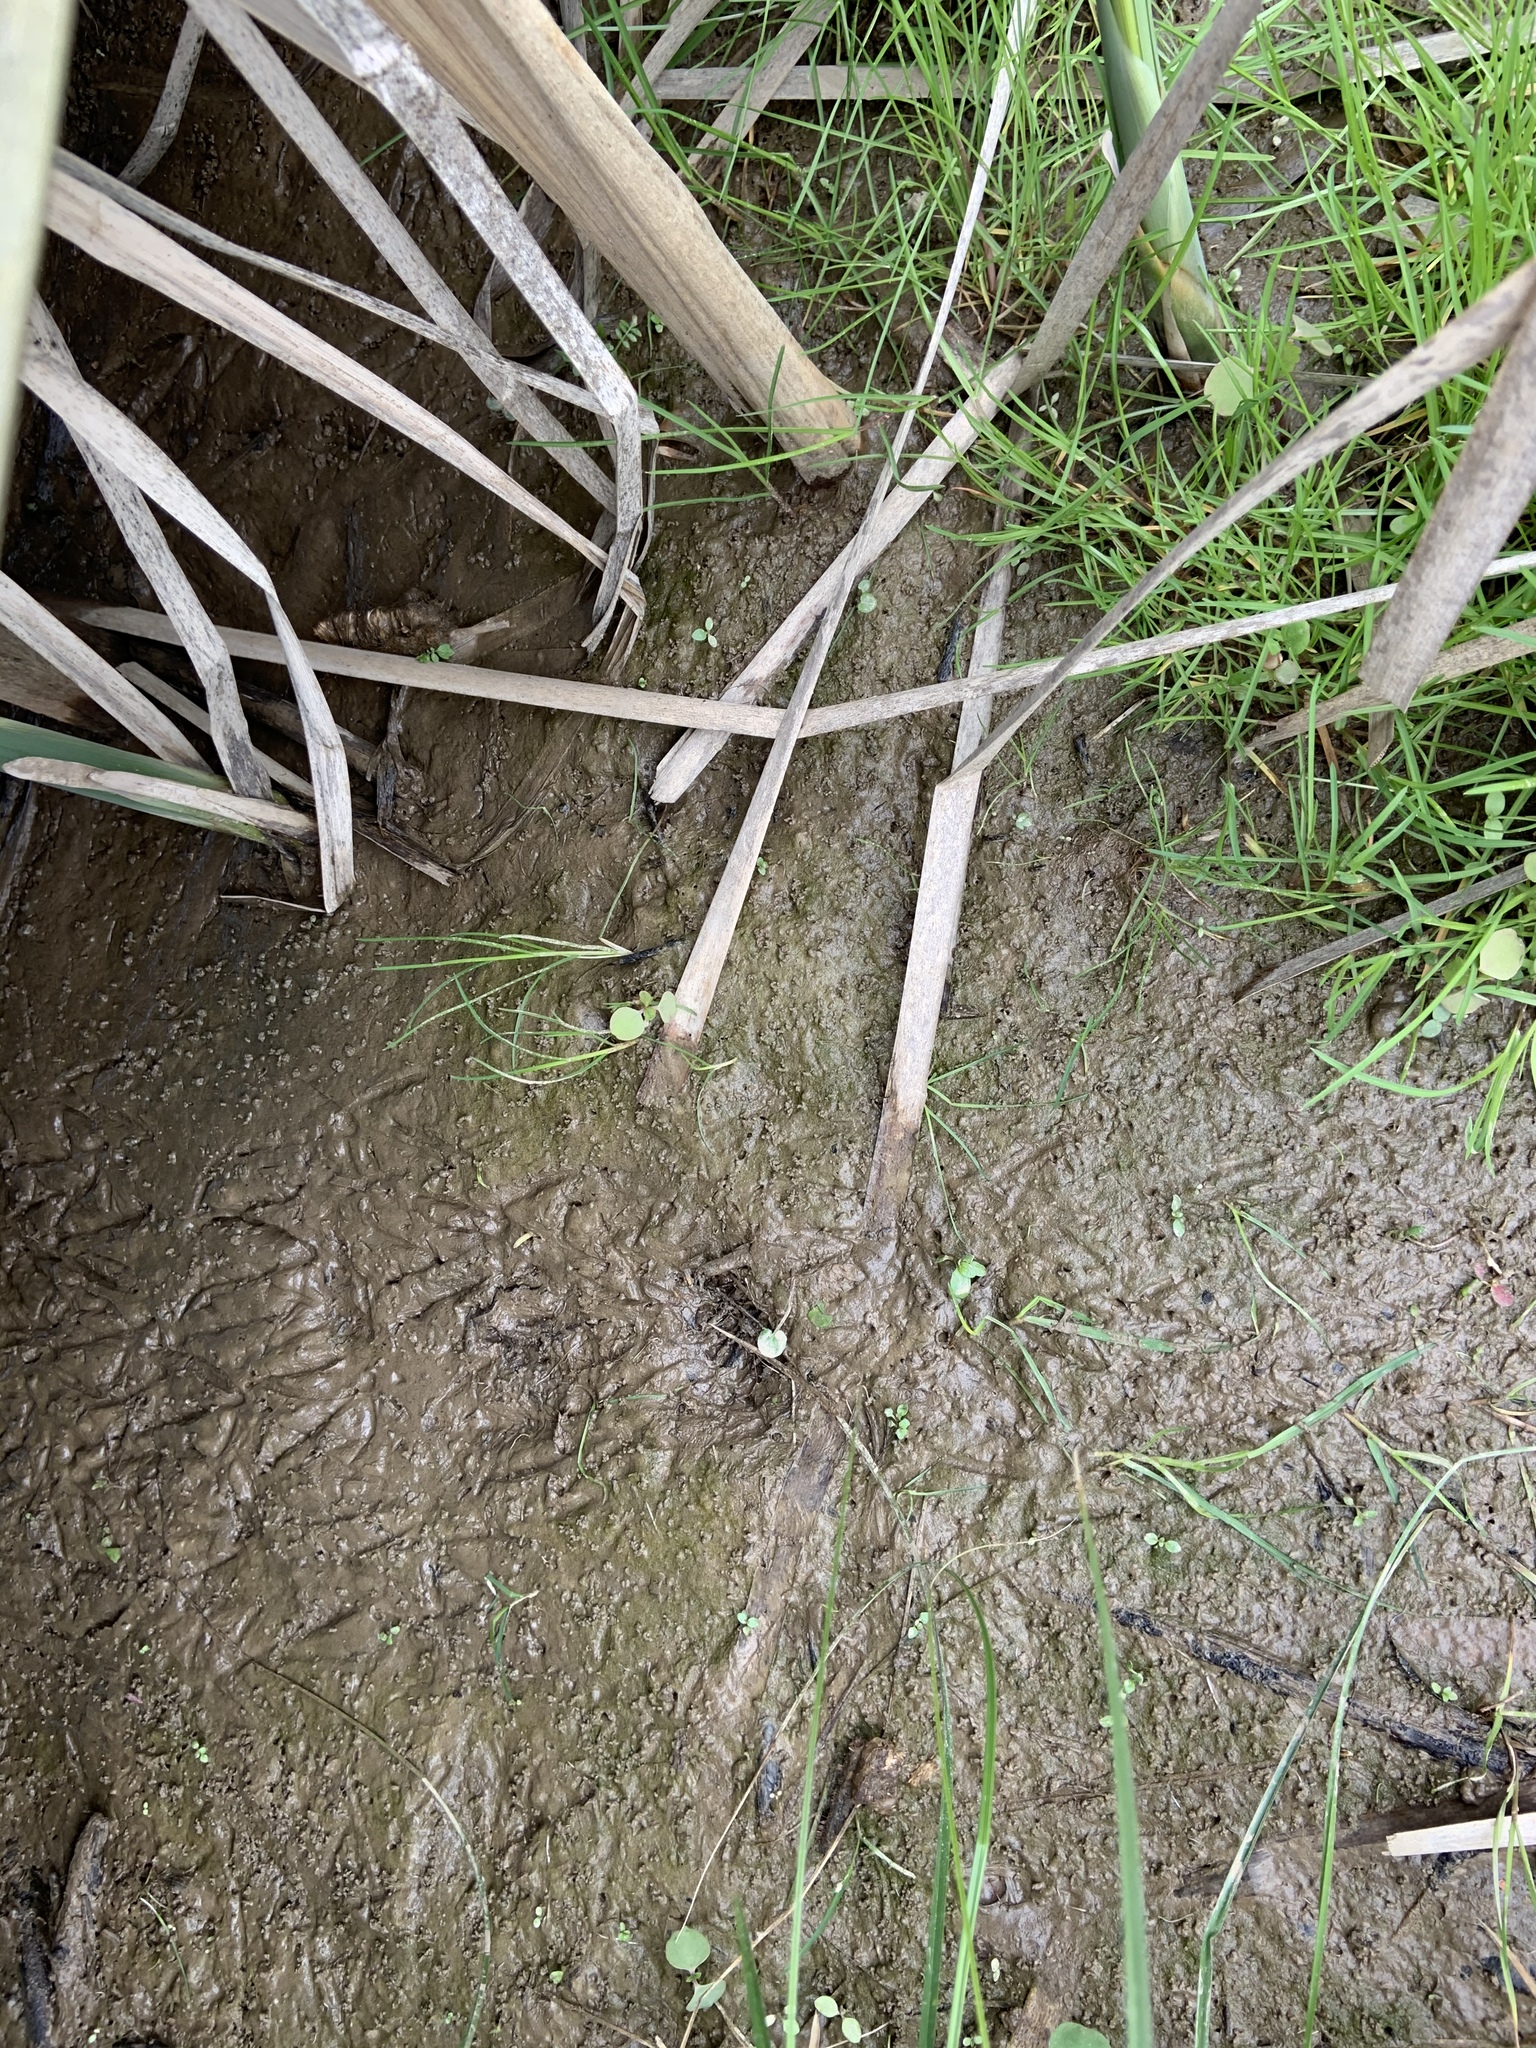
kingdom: Animalia
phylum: Chordata
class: Aves
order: Gruiformes
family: Rallidae
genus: Rallus
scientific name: Rallus limicola
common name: Virginia rail
